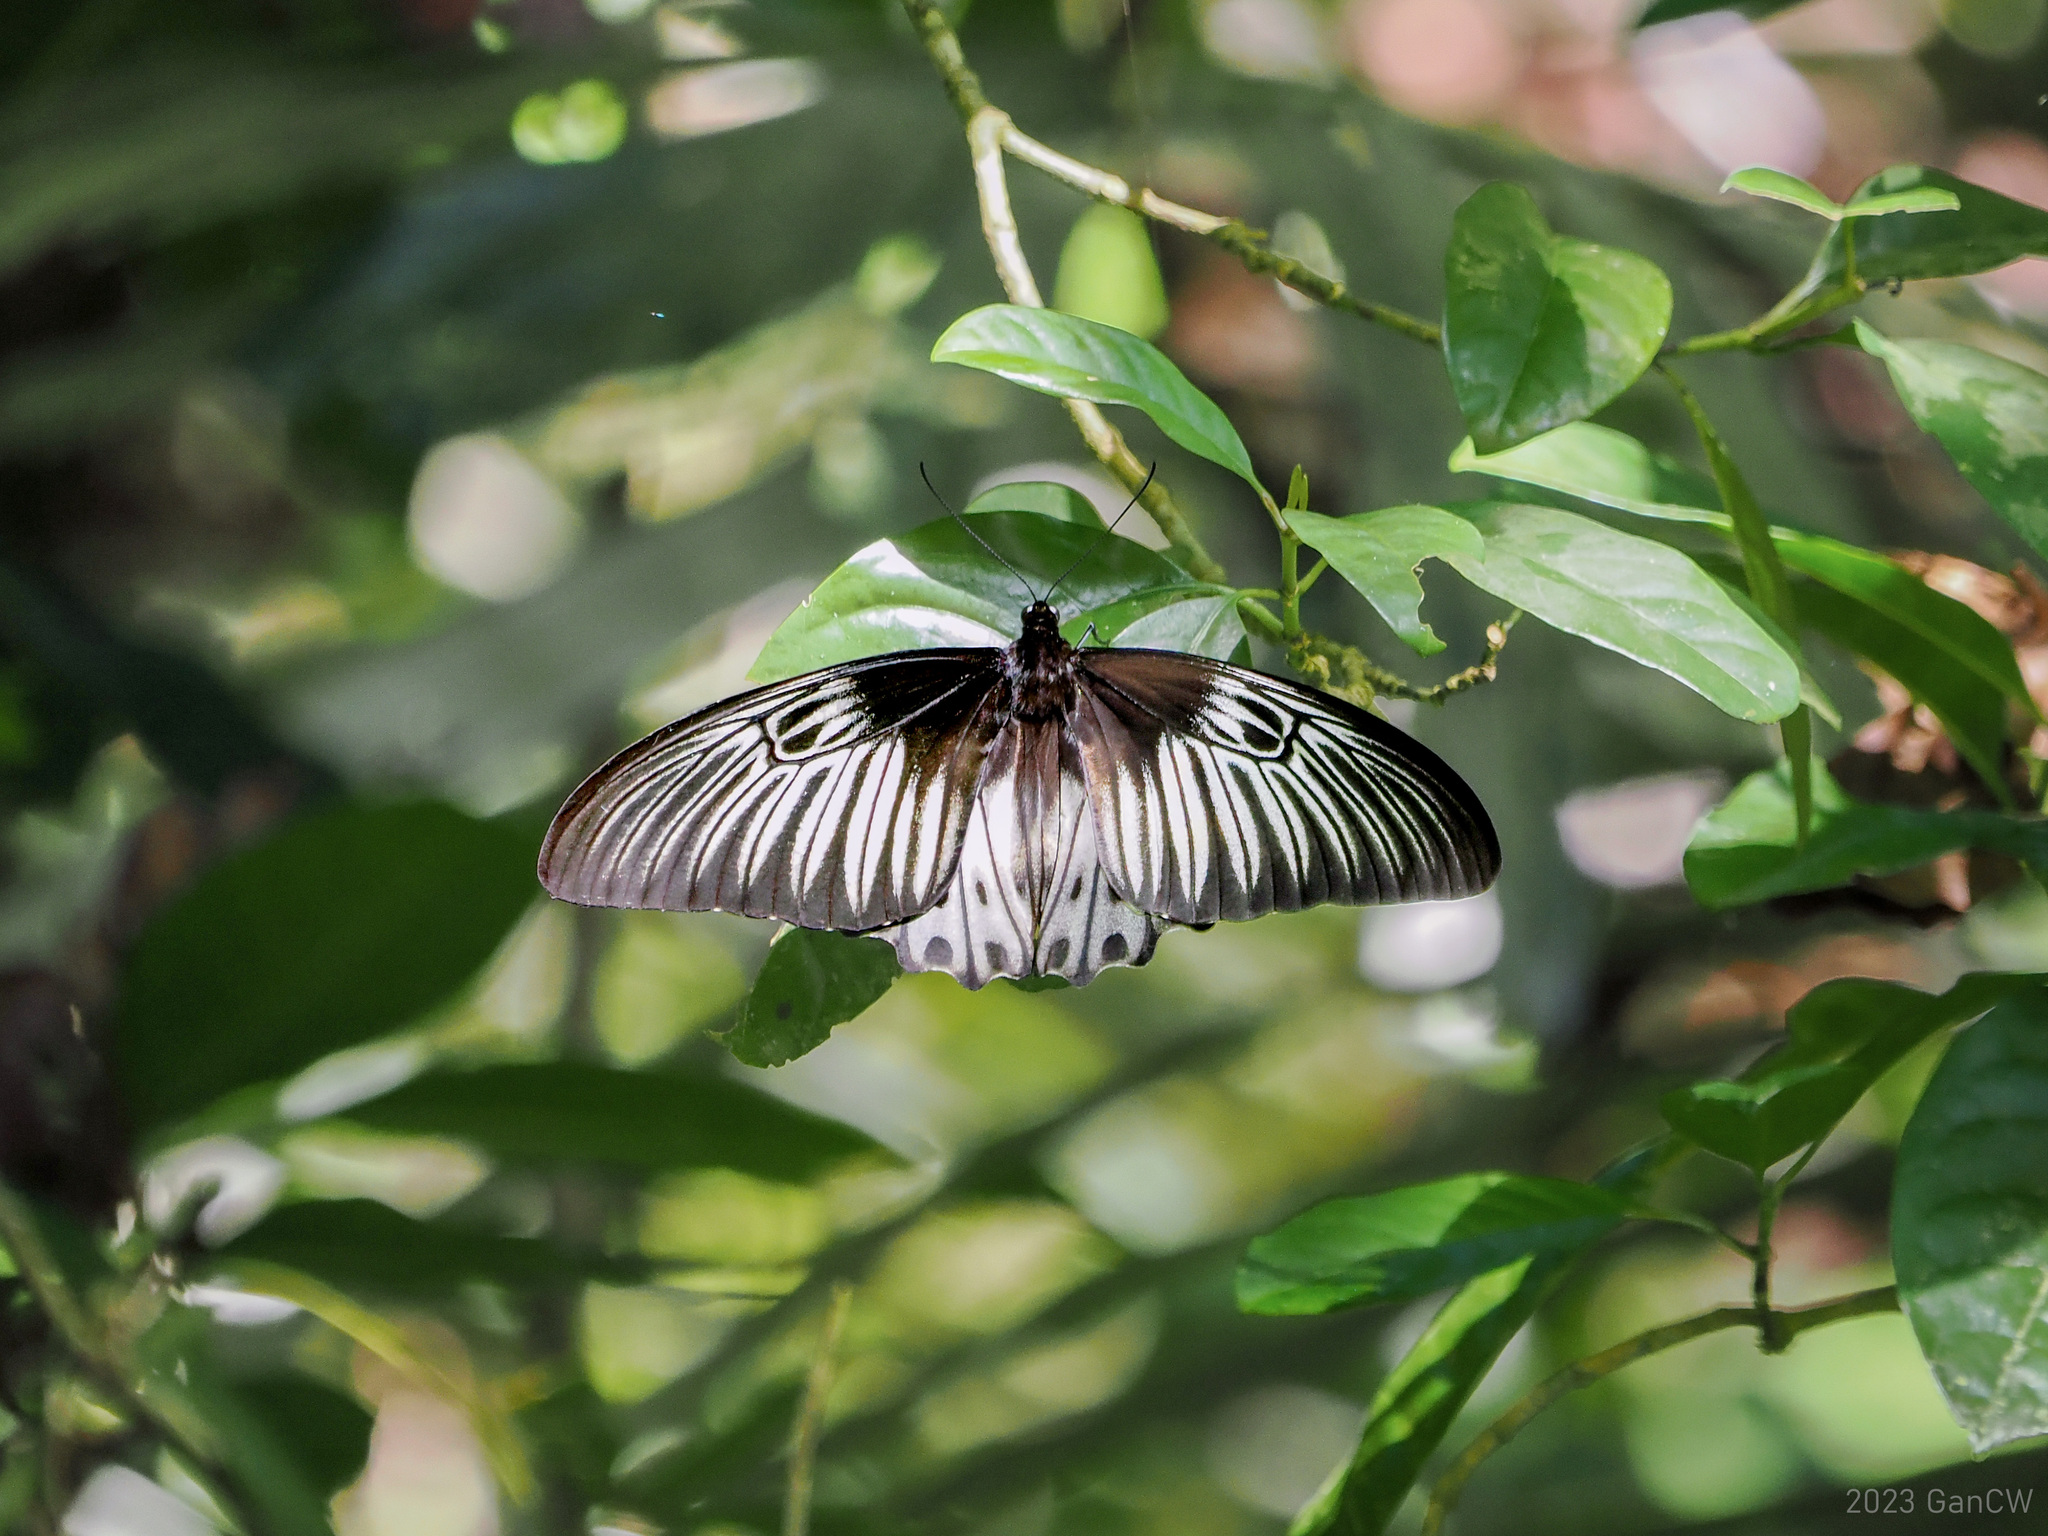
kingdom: Animalia
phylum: Arthropoda
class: Insecta
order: Lepidoptera
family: Papilionidae
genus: Troides
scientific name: Troides hypolitus
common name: Rippon’s birdwing
